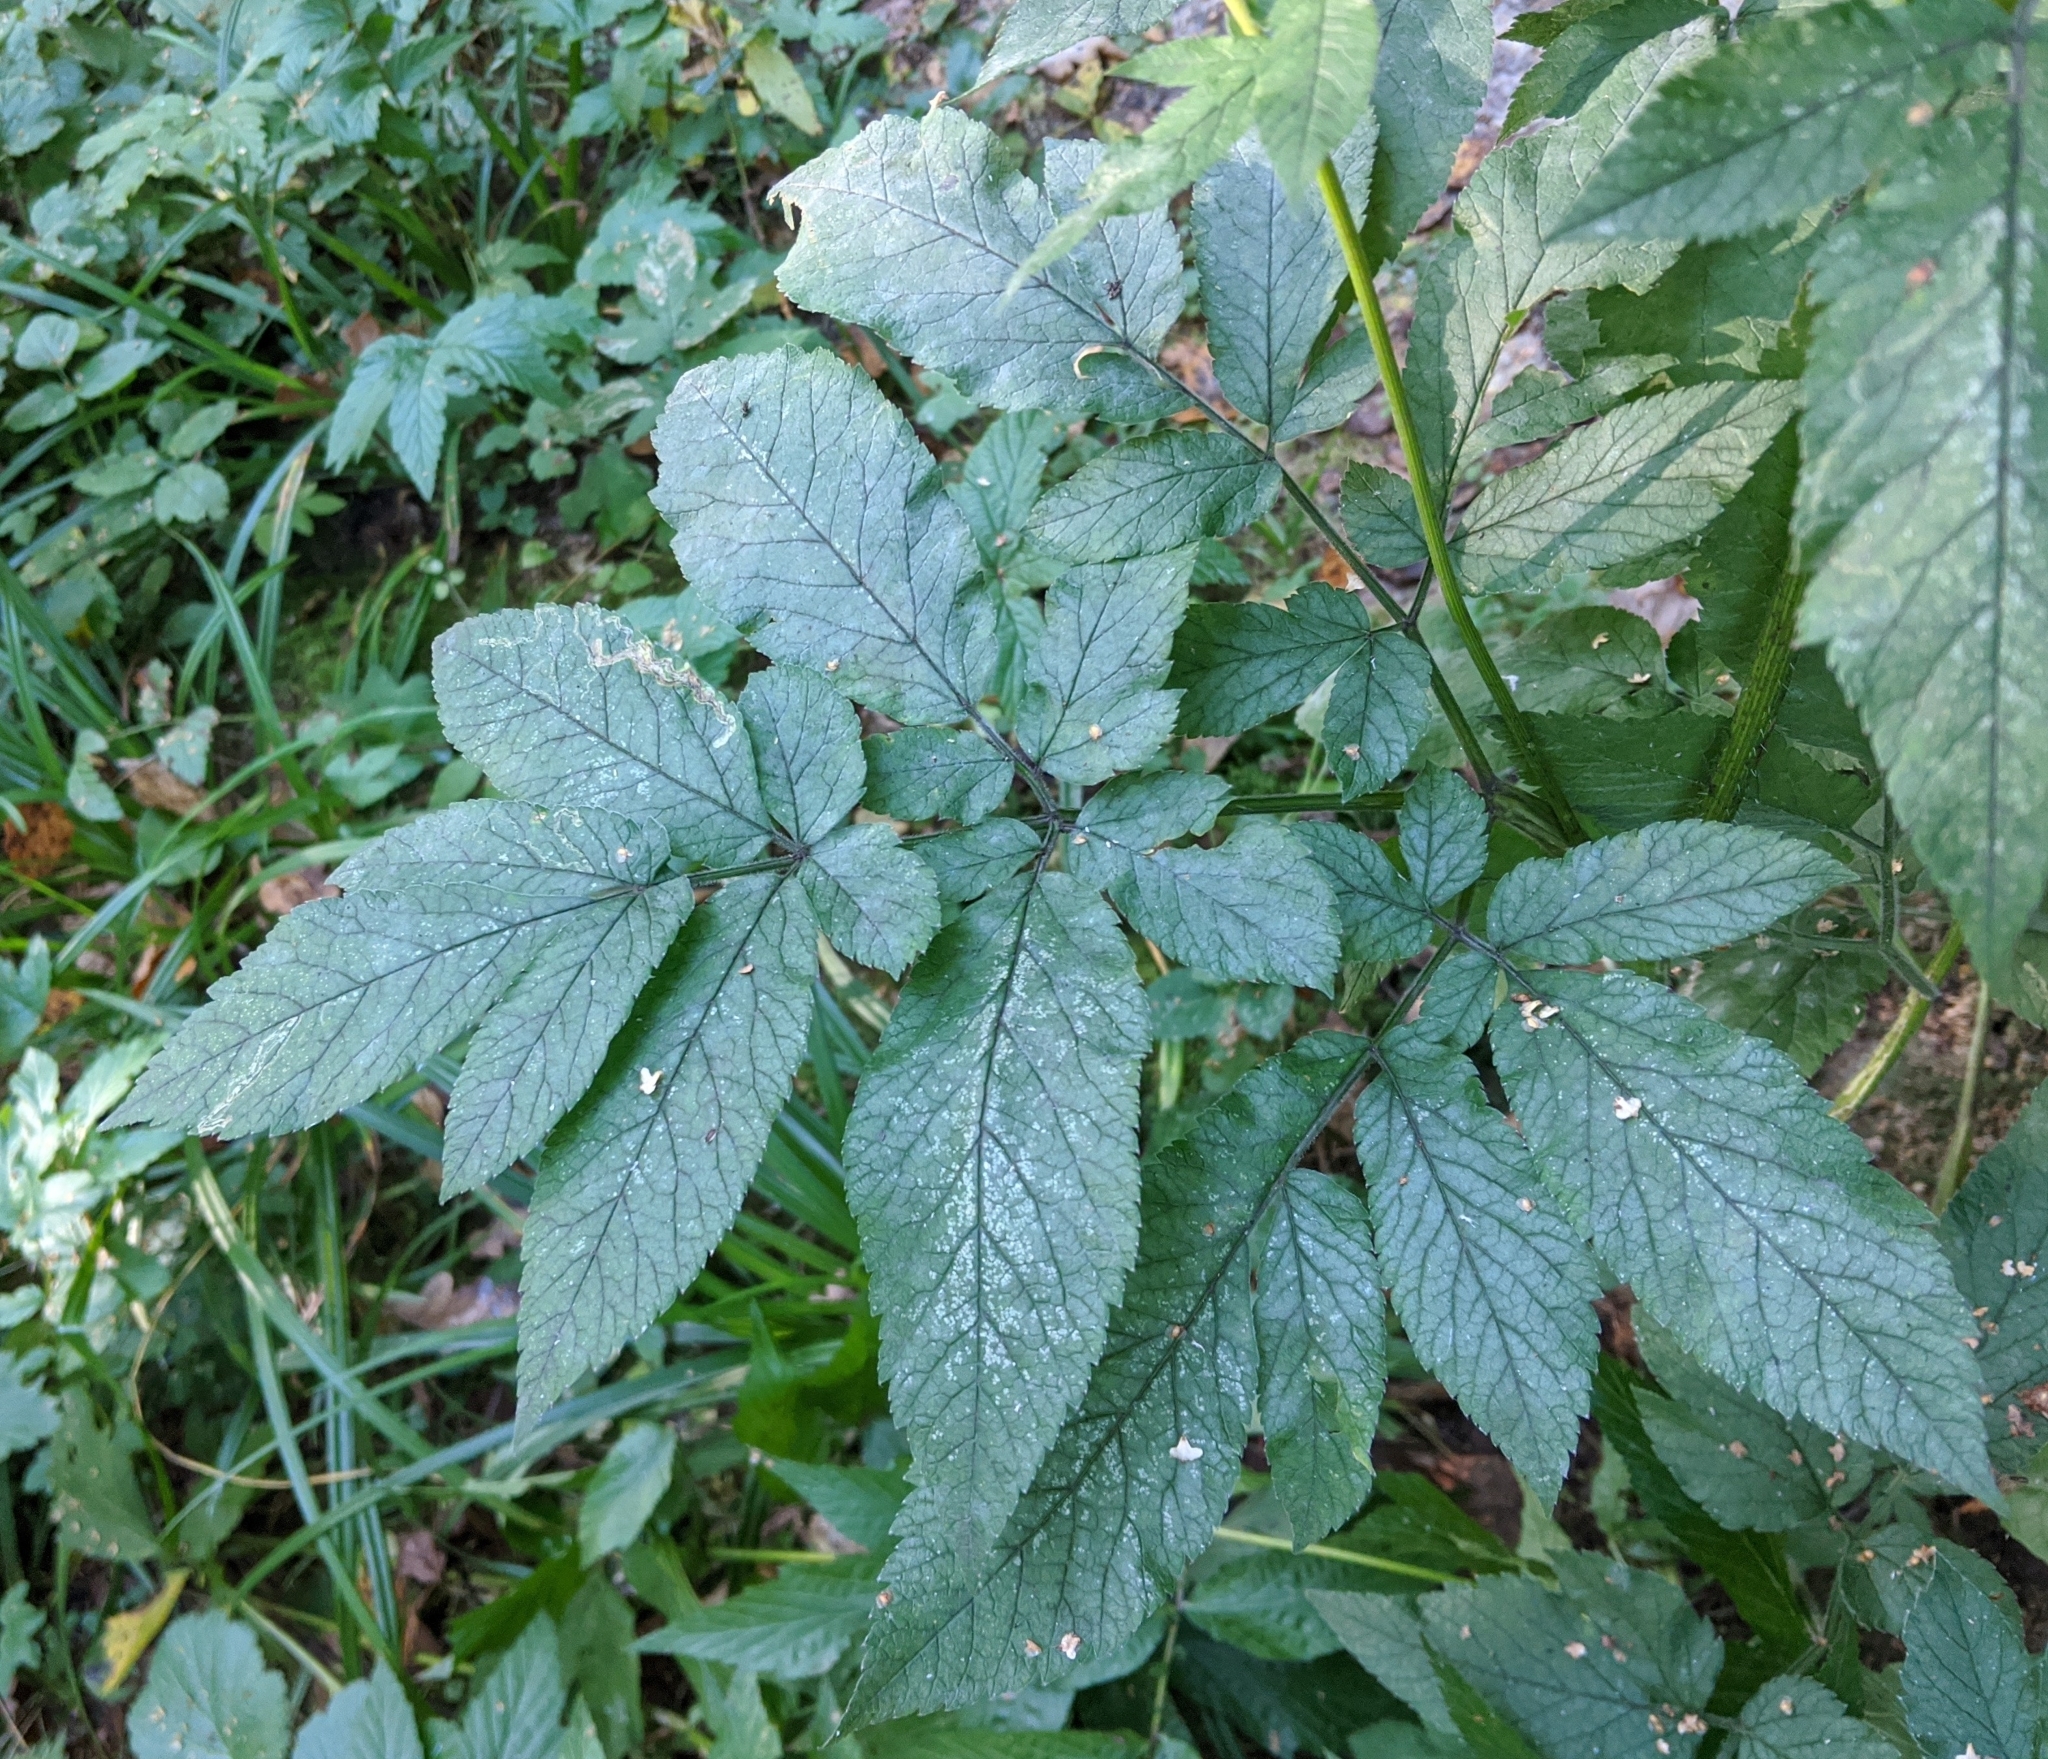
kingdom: Plantae
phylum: Tracheophyta
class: Magnoliopsida
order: Apiales
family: Apiaceae
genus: Chaerophyllum
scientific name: Chaerophyllum aromaticum
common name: Broadleaf chervil
